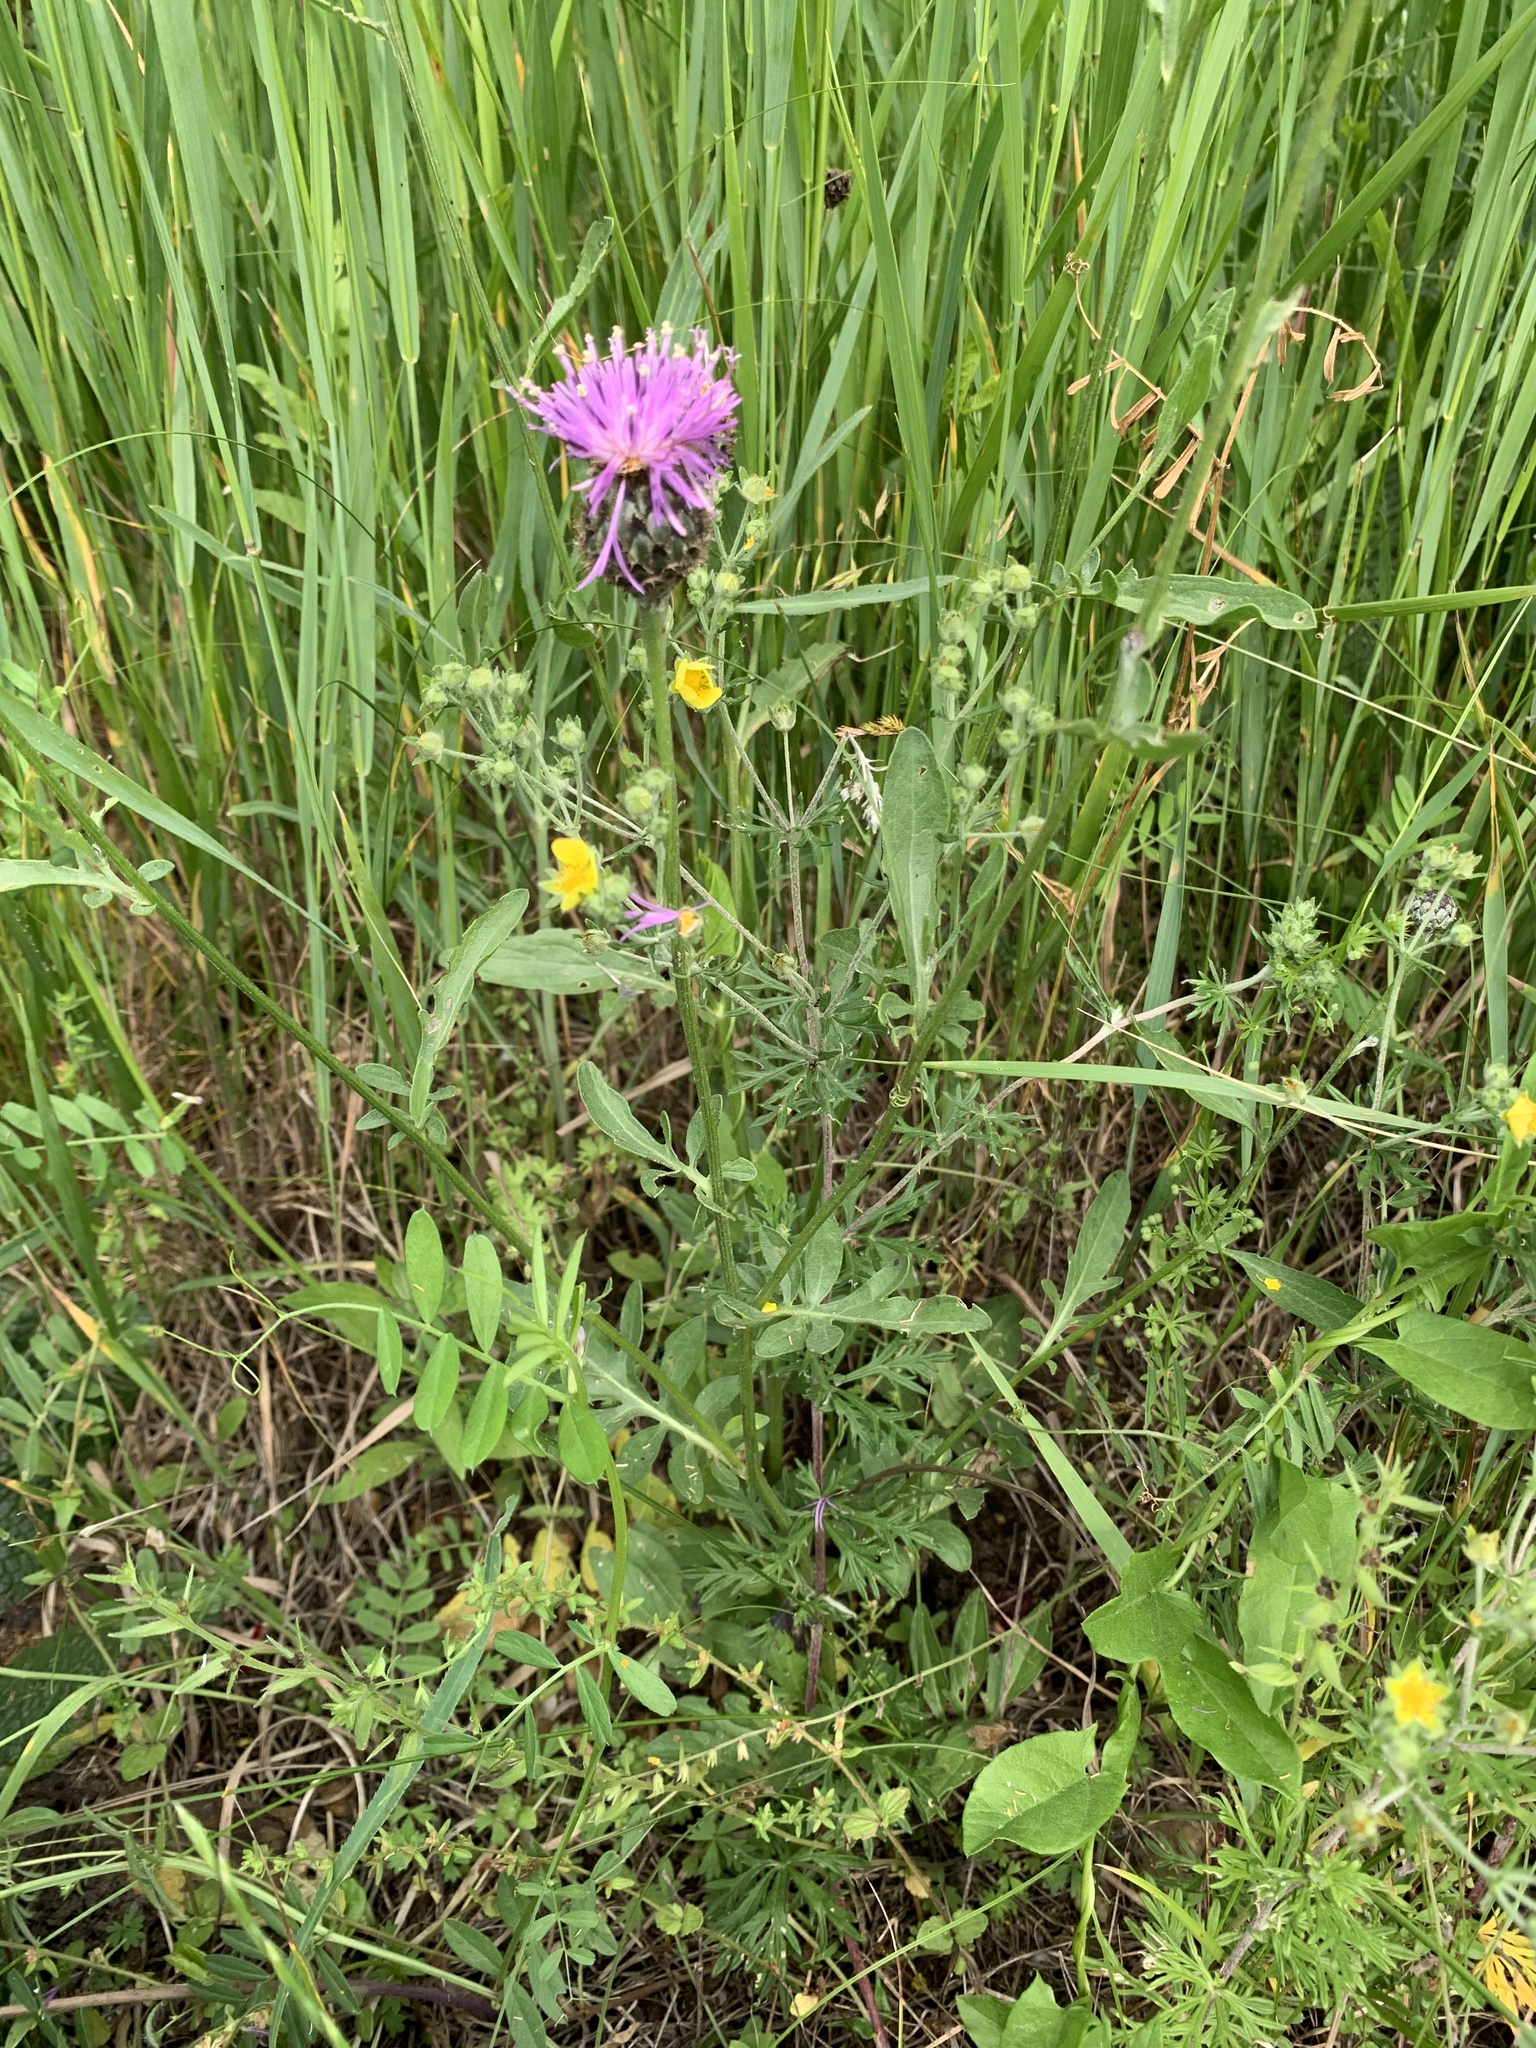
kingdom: Plantae
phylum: Tracheophyta
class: Magnoliopsida
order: Asterales
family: Asteraceae
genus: Centaurea
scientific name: Centaurea scabiosa
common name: Greater knapweed
